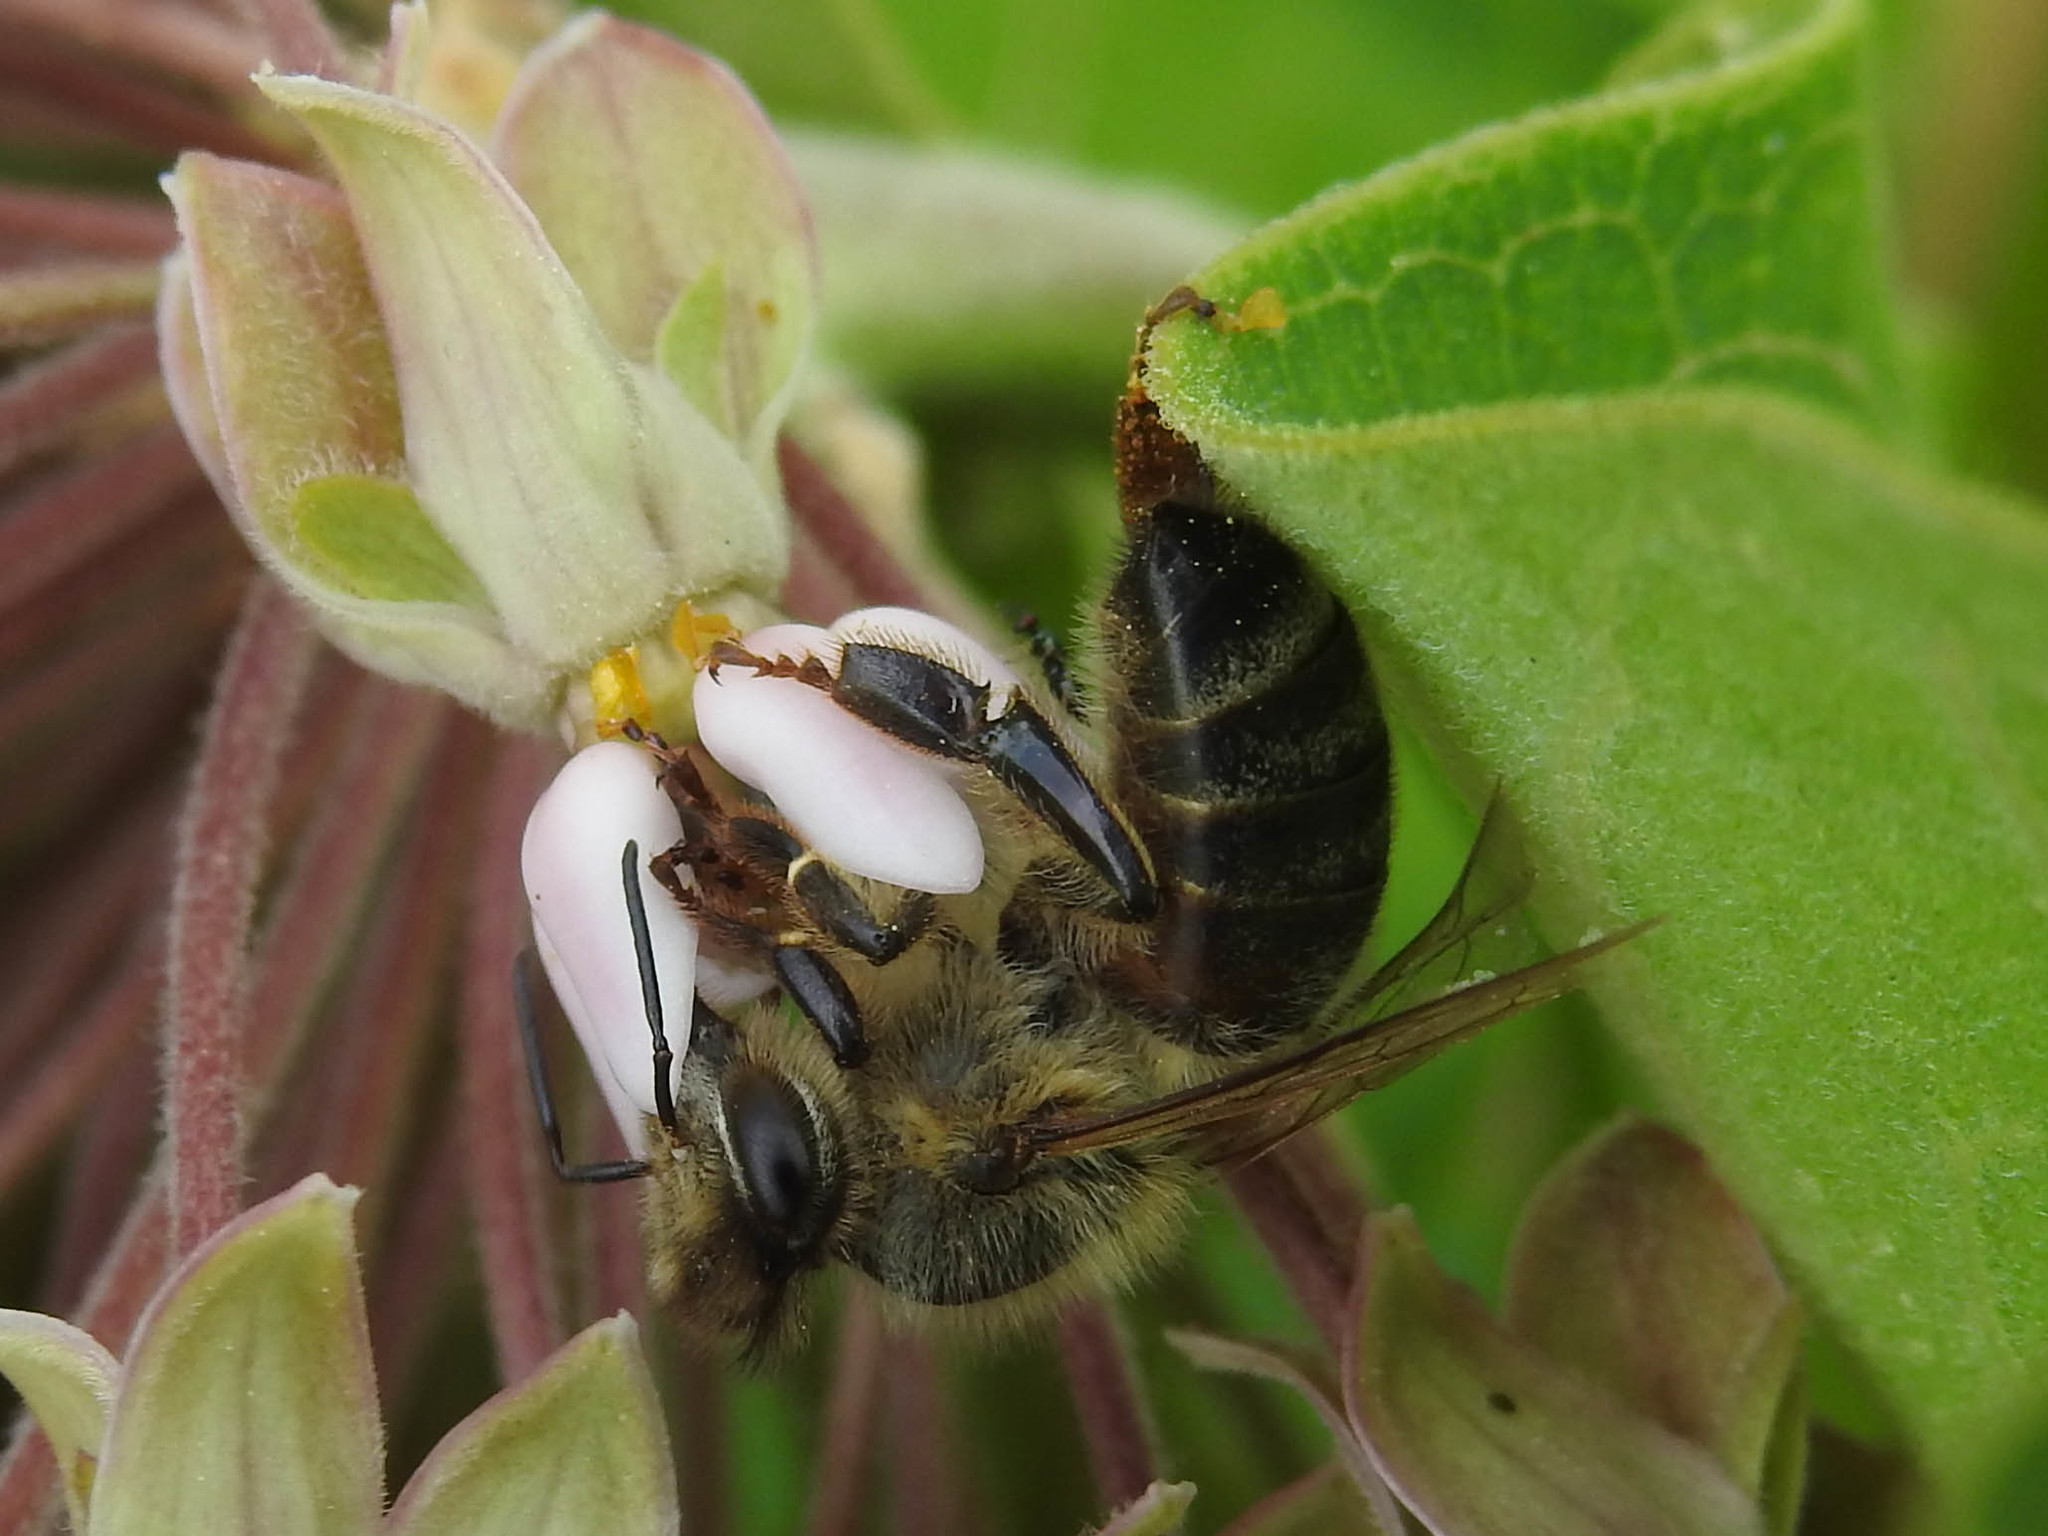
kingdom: Animalia
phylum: Arthropoda
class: Insecta
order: Hymenoptera
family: Apidae
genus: Apis
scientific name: Apis mellifera
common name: Honey bee
